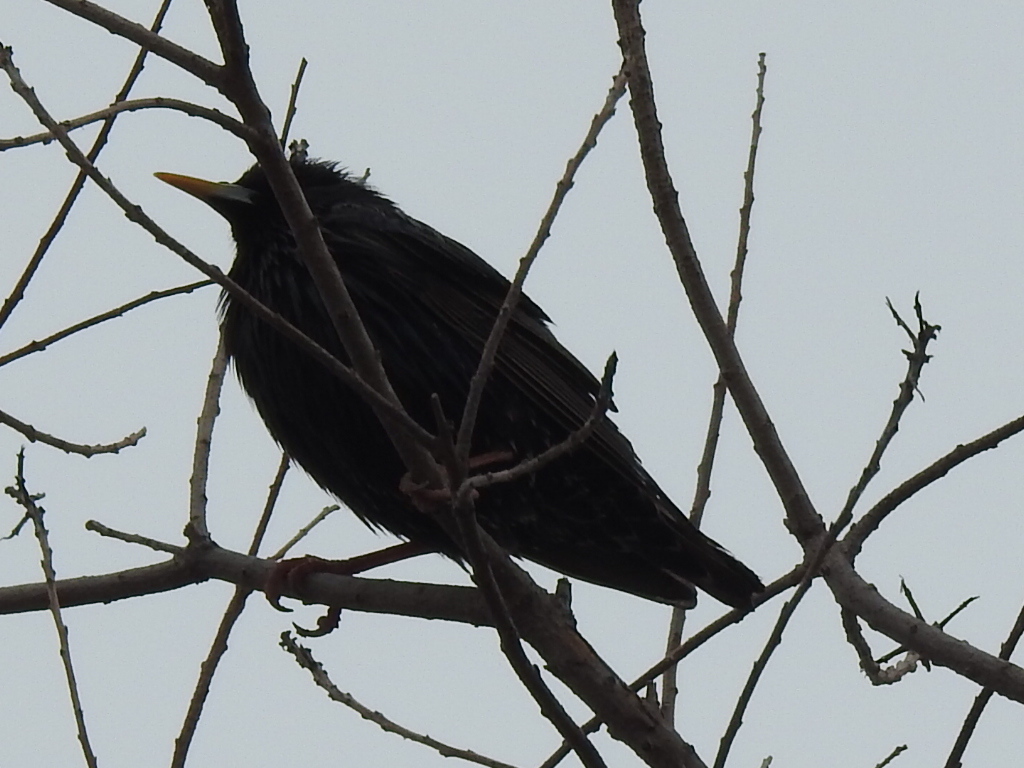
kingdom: Animalia
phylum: Chordata
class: Aves
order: Passeriformes
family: Sturnidae
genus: Sturnus
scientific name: Sturnus vulgaris
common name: Common starling
